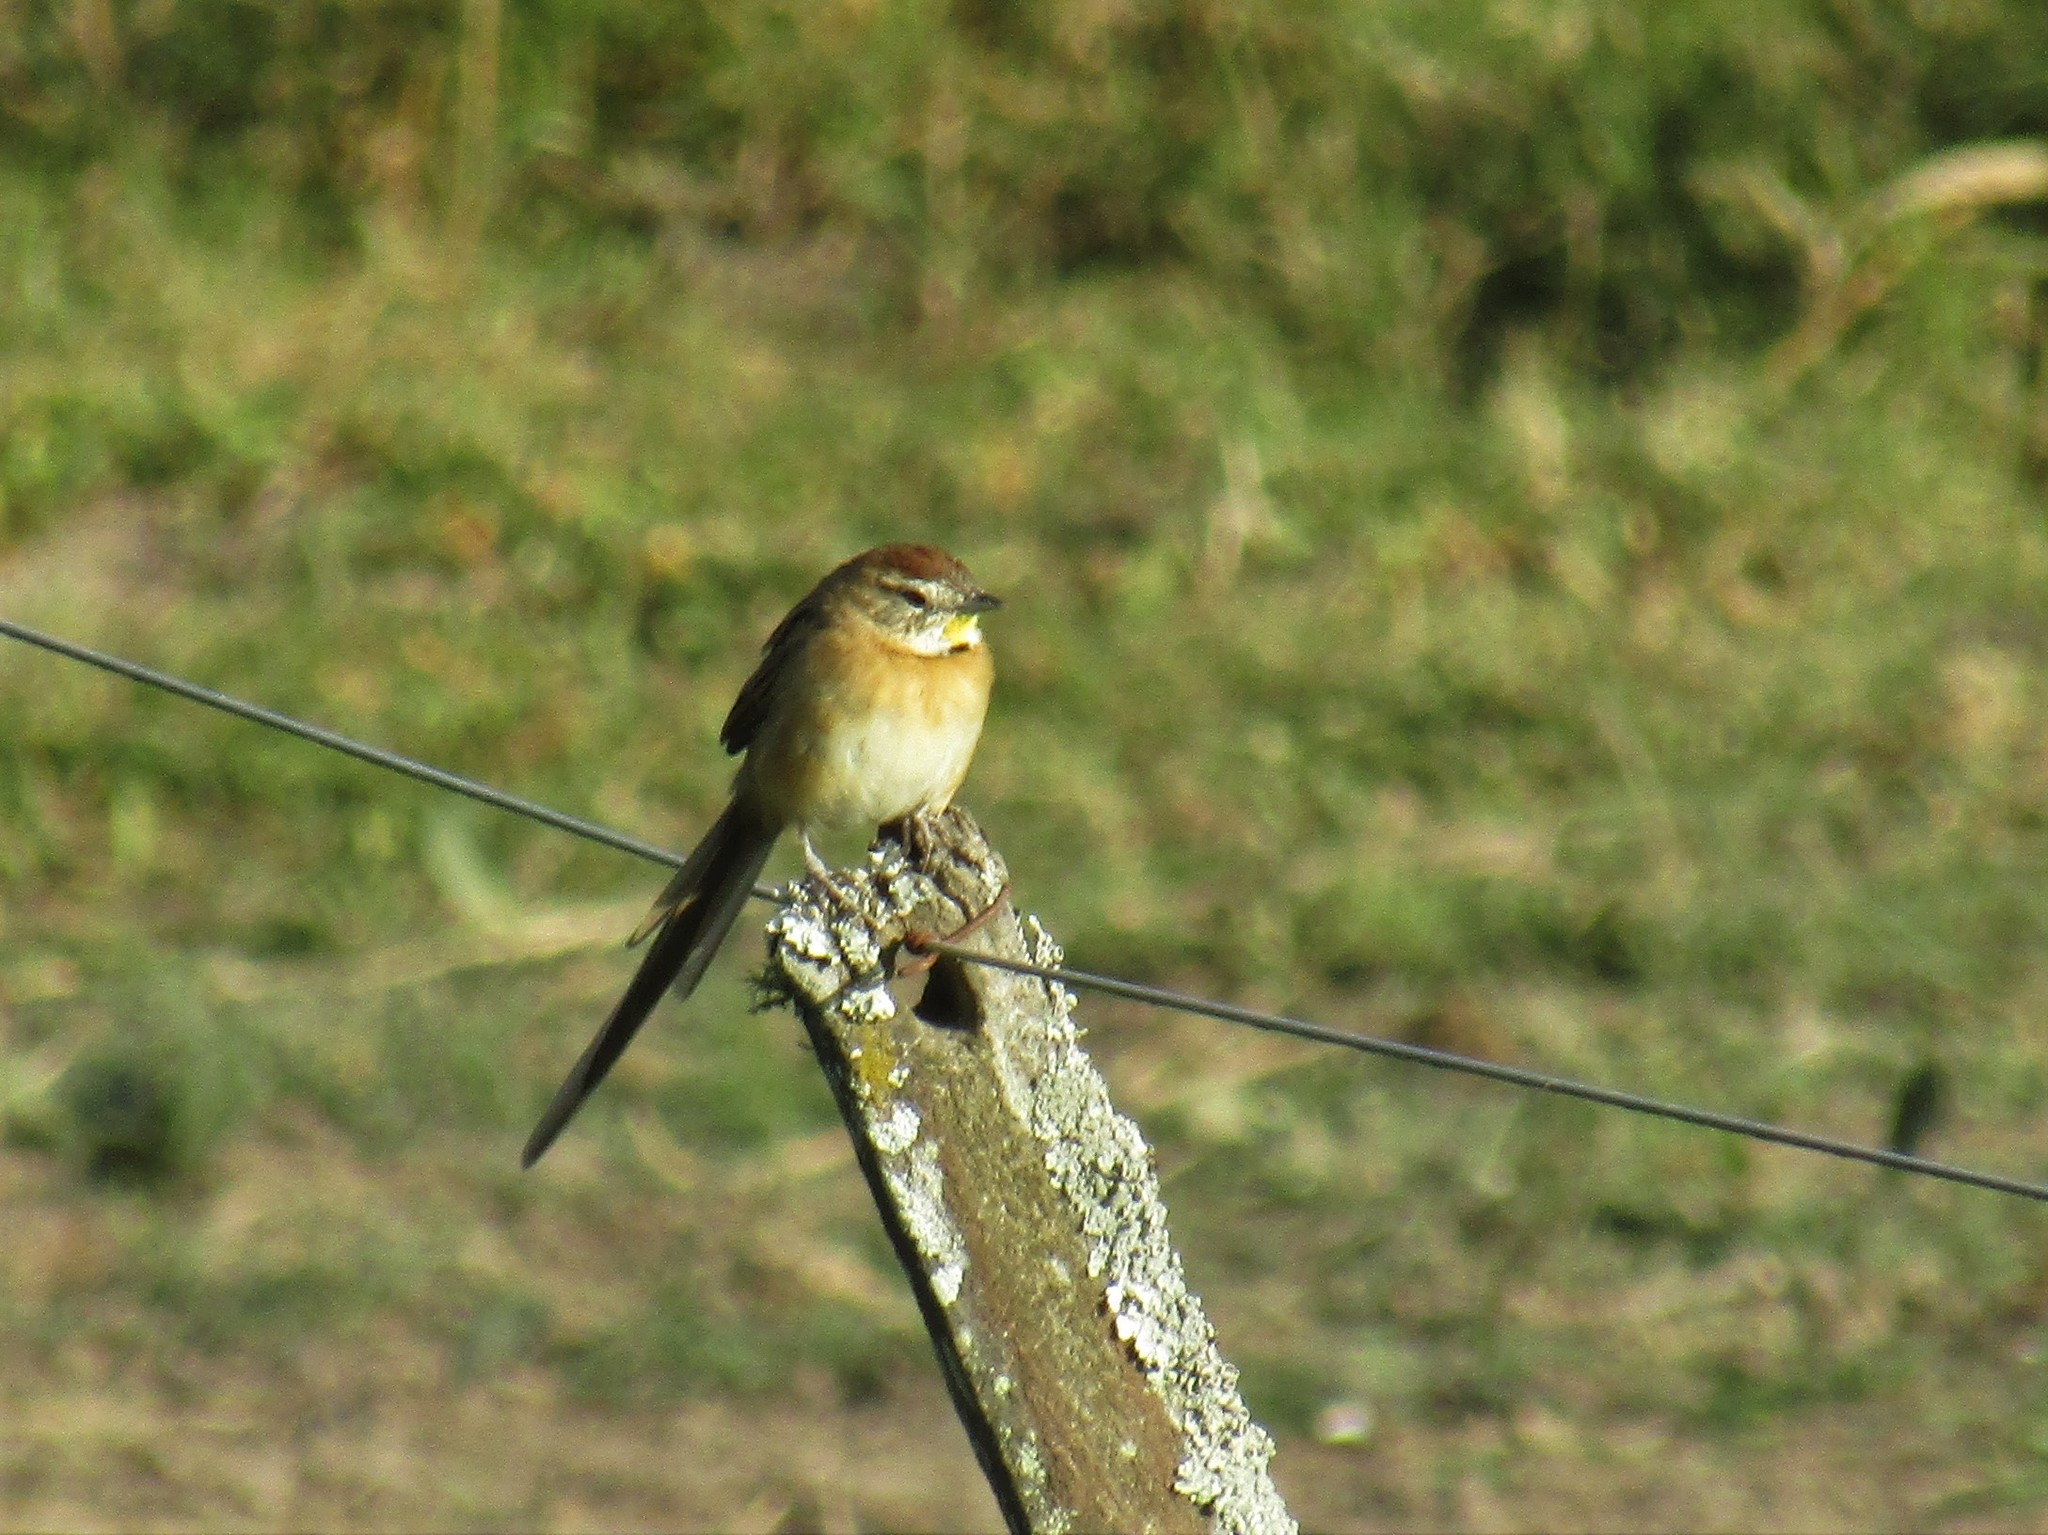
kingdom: Animalia
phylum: Chordata
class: Aves
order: Passeriformes
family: Furnariidae
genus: Schoeniophylax
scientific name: Schoeniophylax phryganophilus
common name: Chotoy spinetail
